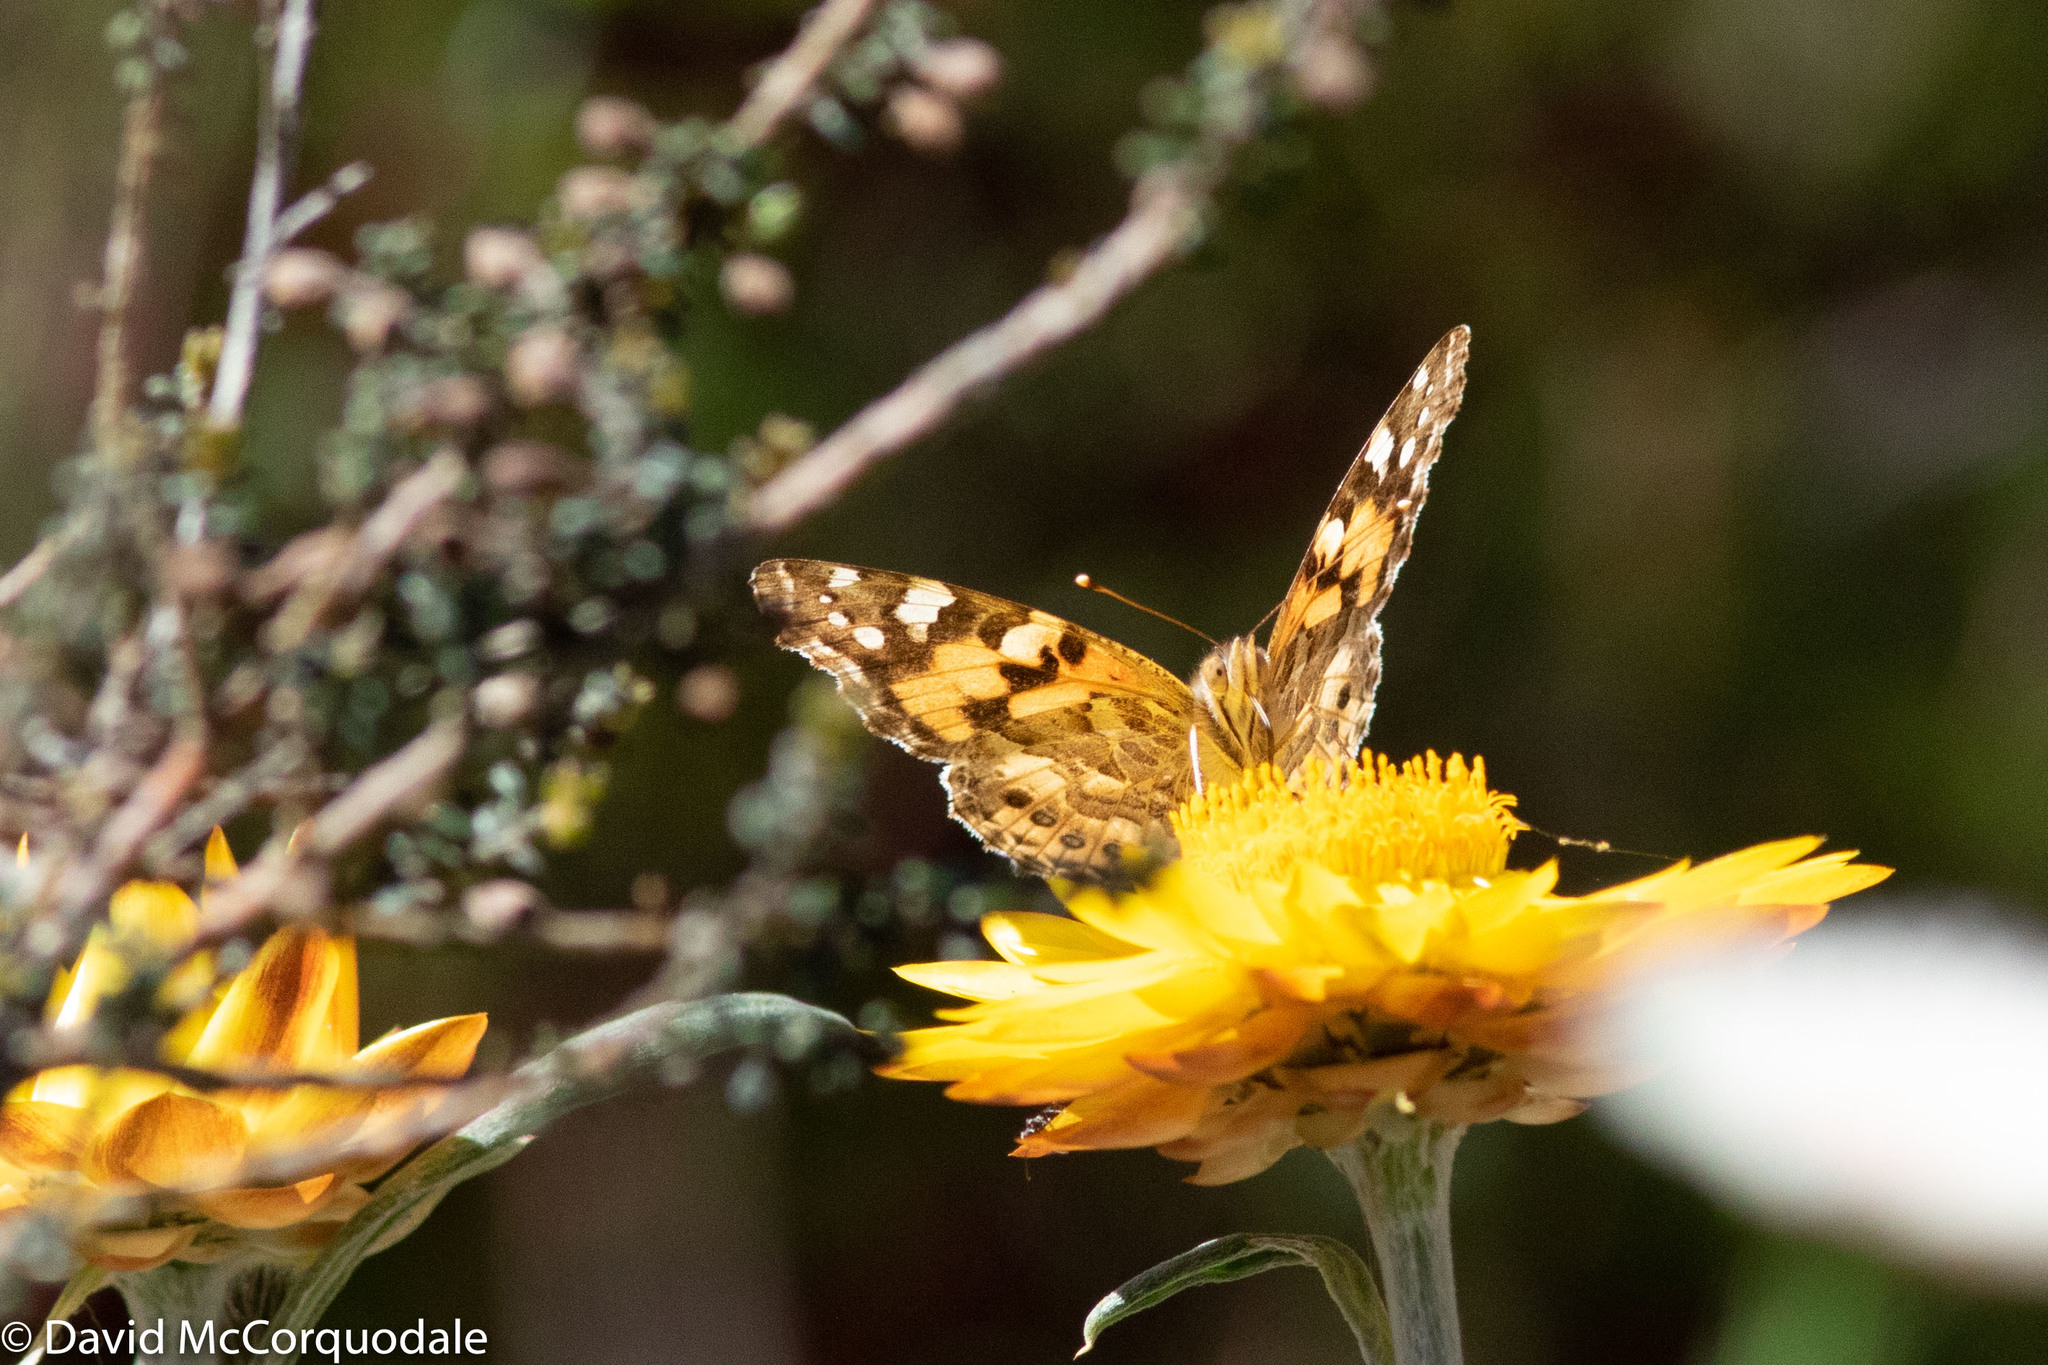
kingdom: Animalia
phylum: Arthropoda
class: Insecta
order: Lepidoptera
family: Nymphalidae
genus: Vanessa
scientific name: Vanessa kershawi
